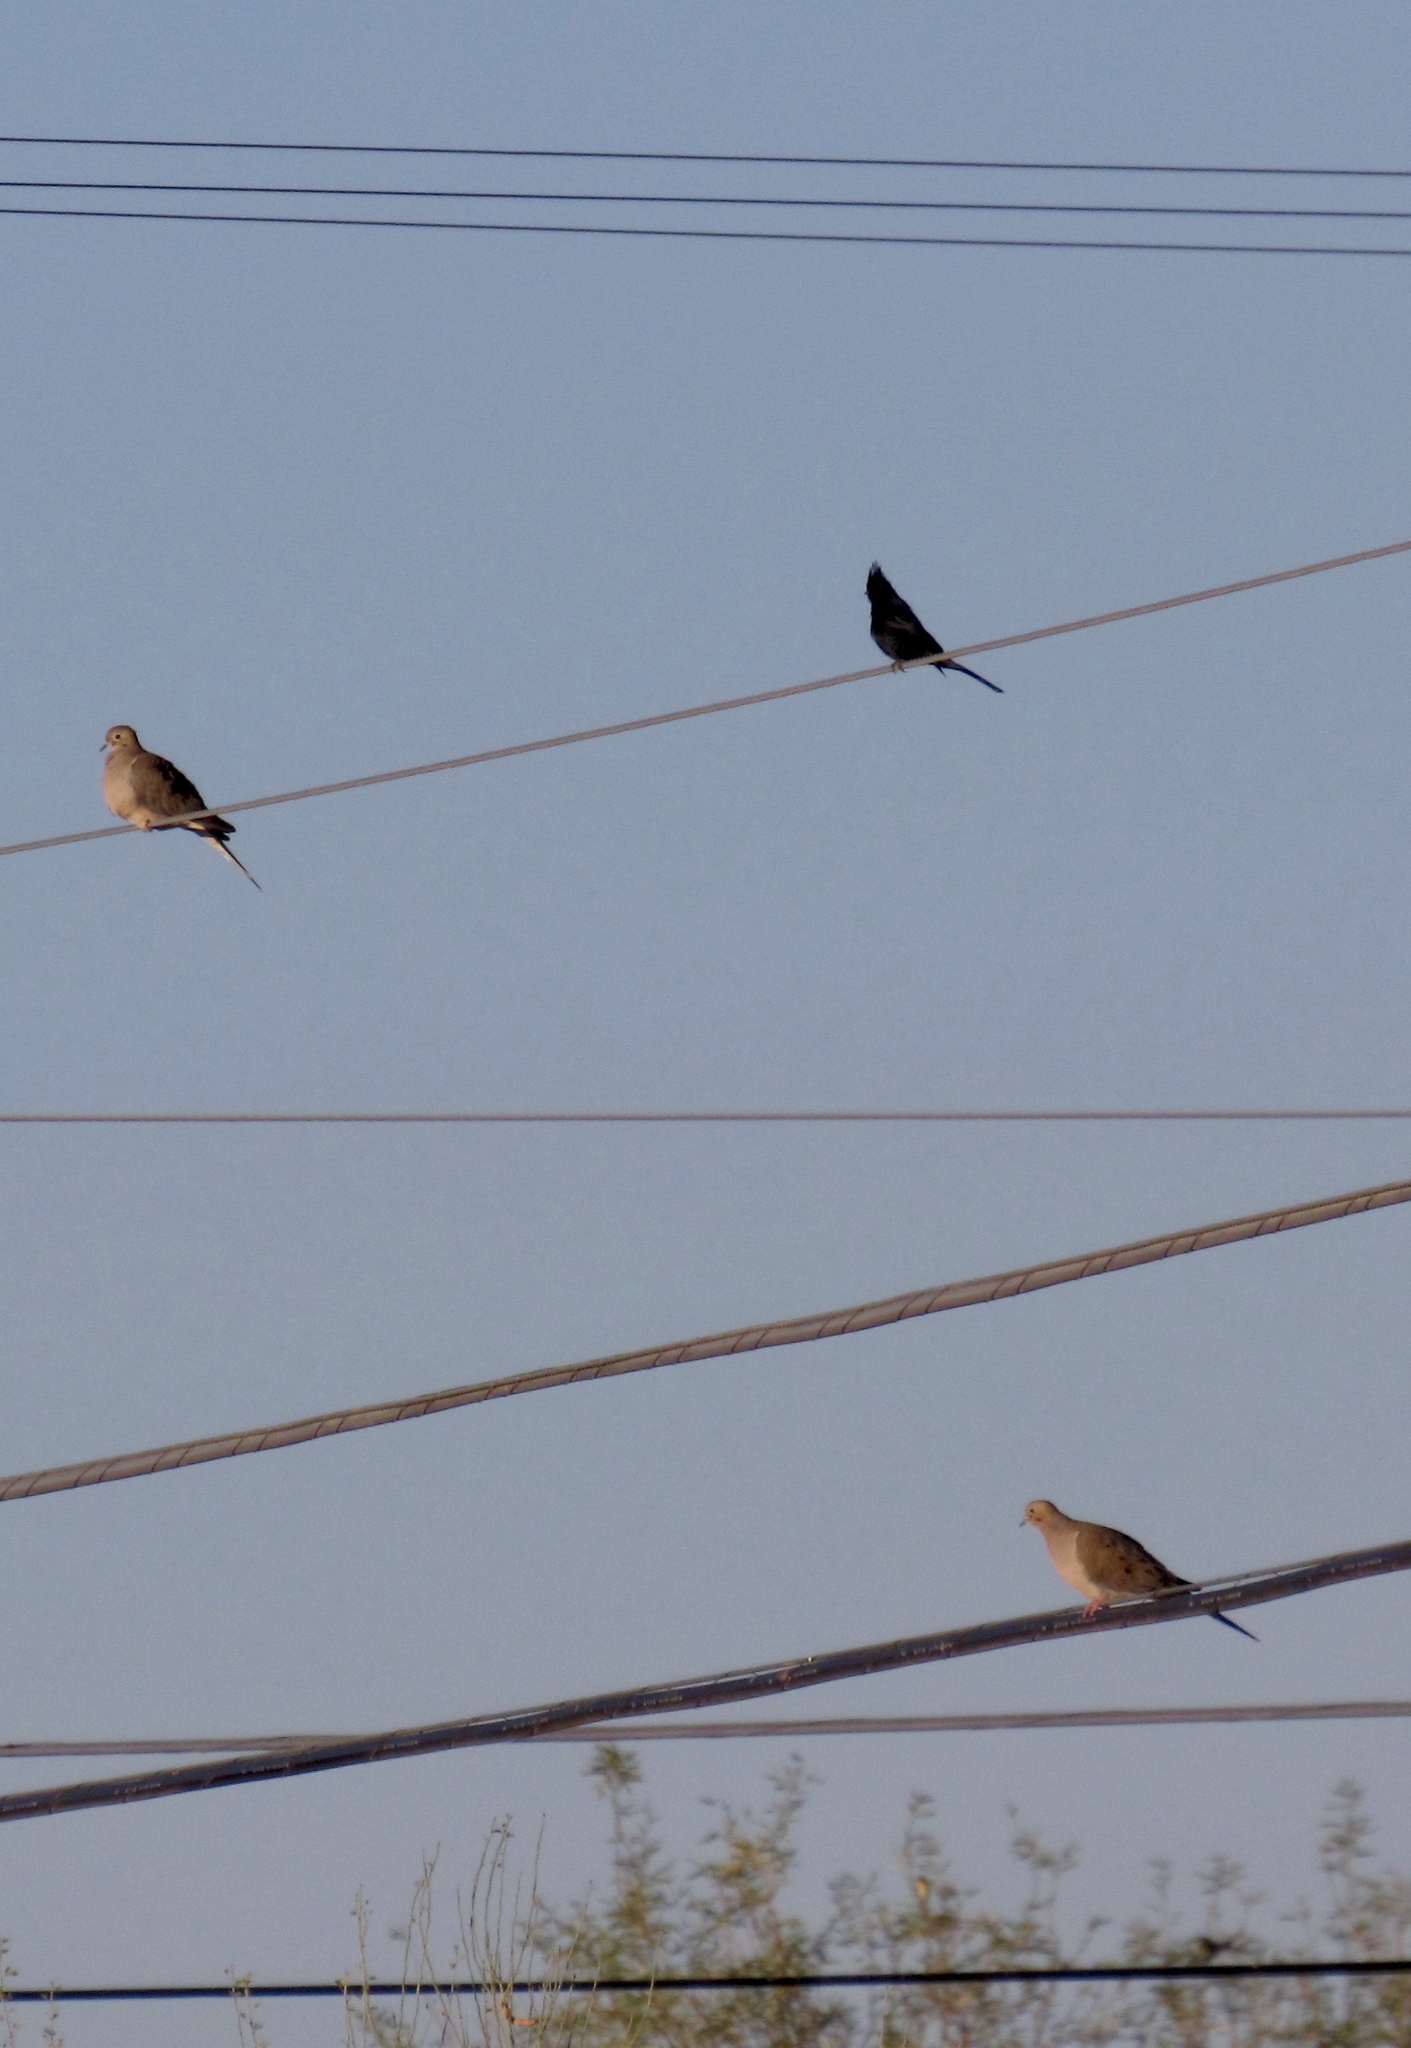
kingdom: Animalia
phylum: Chordata
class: Aves
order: Passeriformes
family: Ptilogonatidae
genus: Phainopepla
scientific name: Phainopepla nitens
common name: Phainopepla
